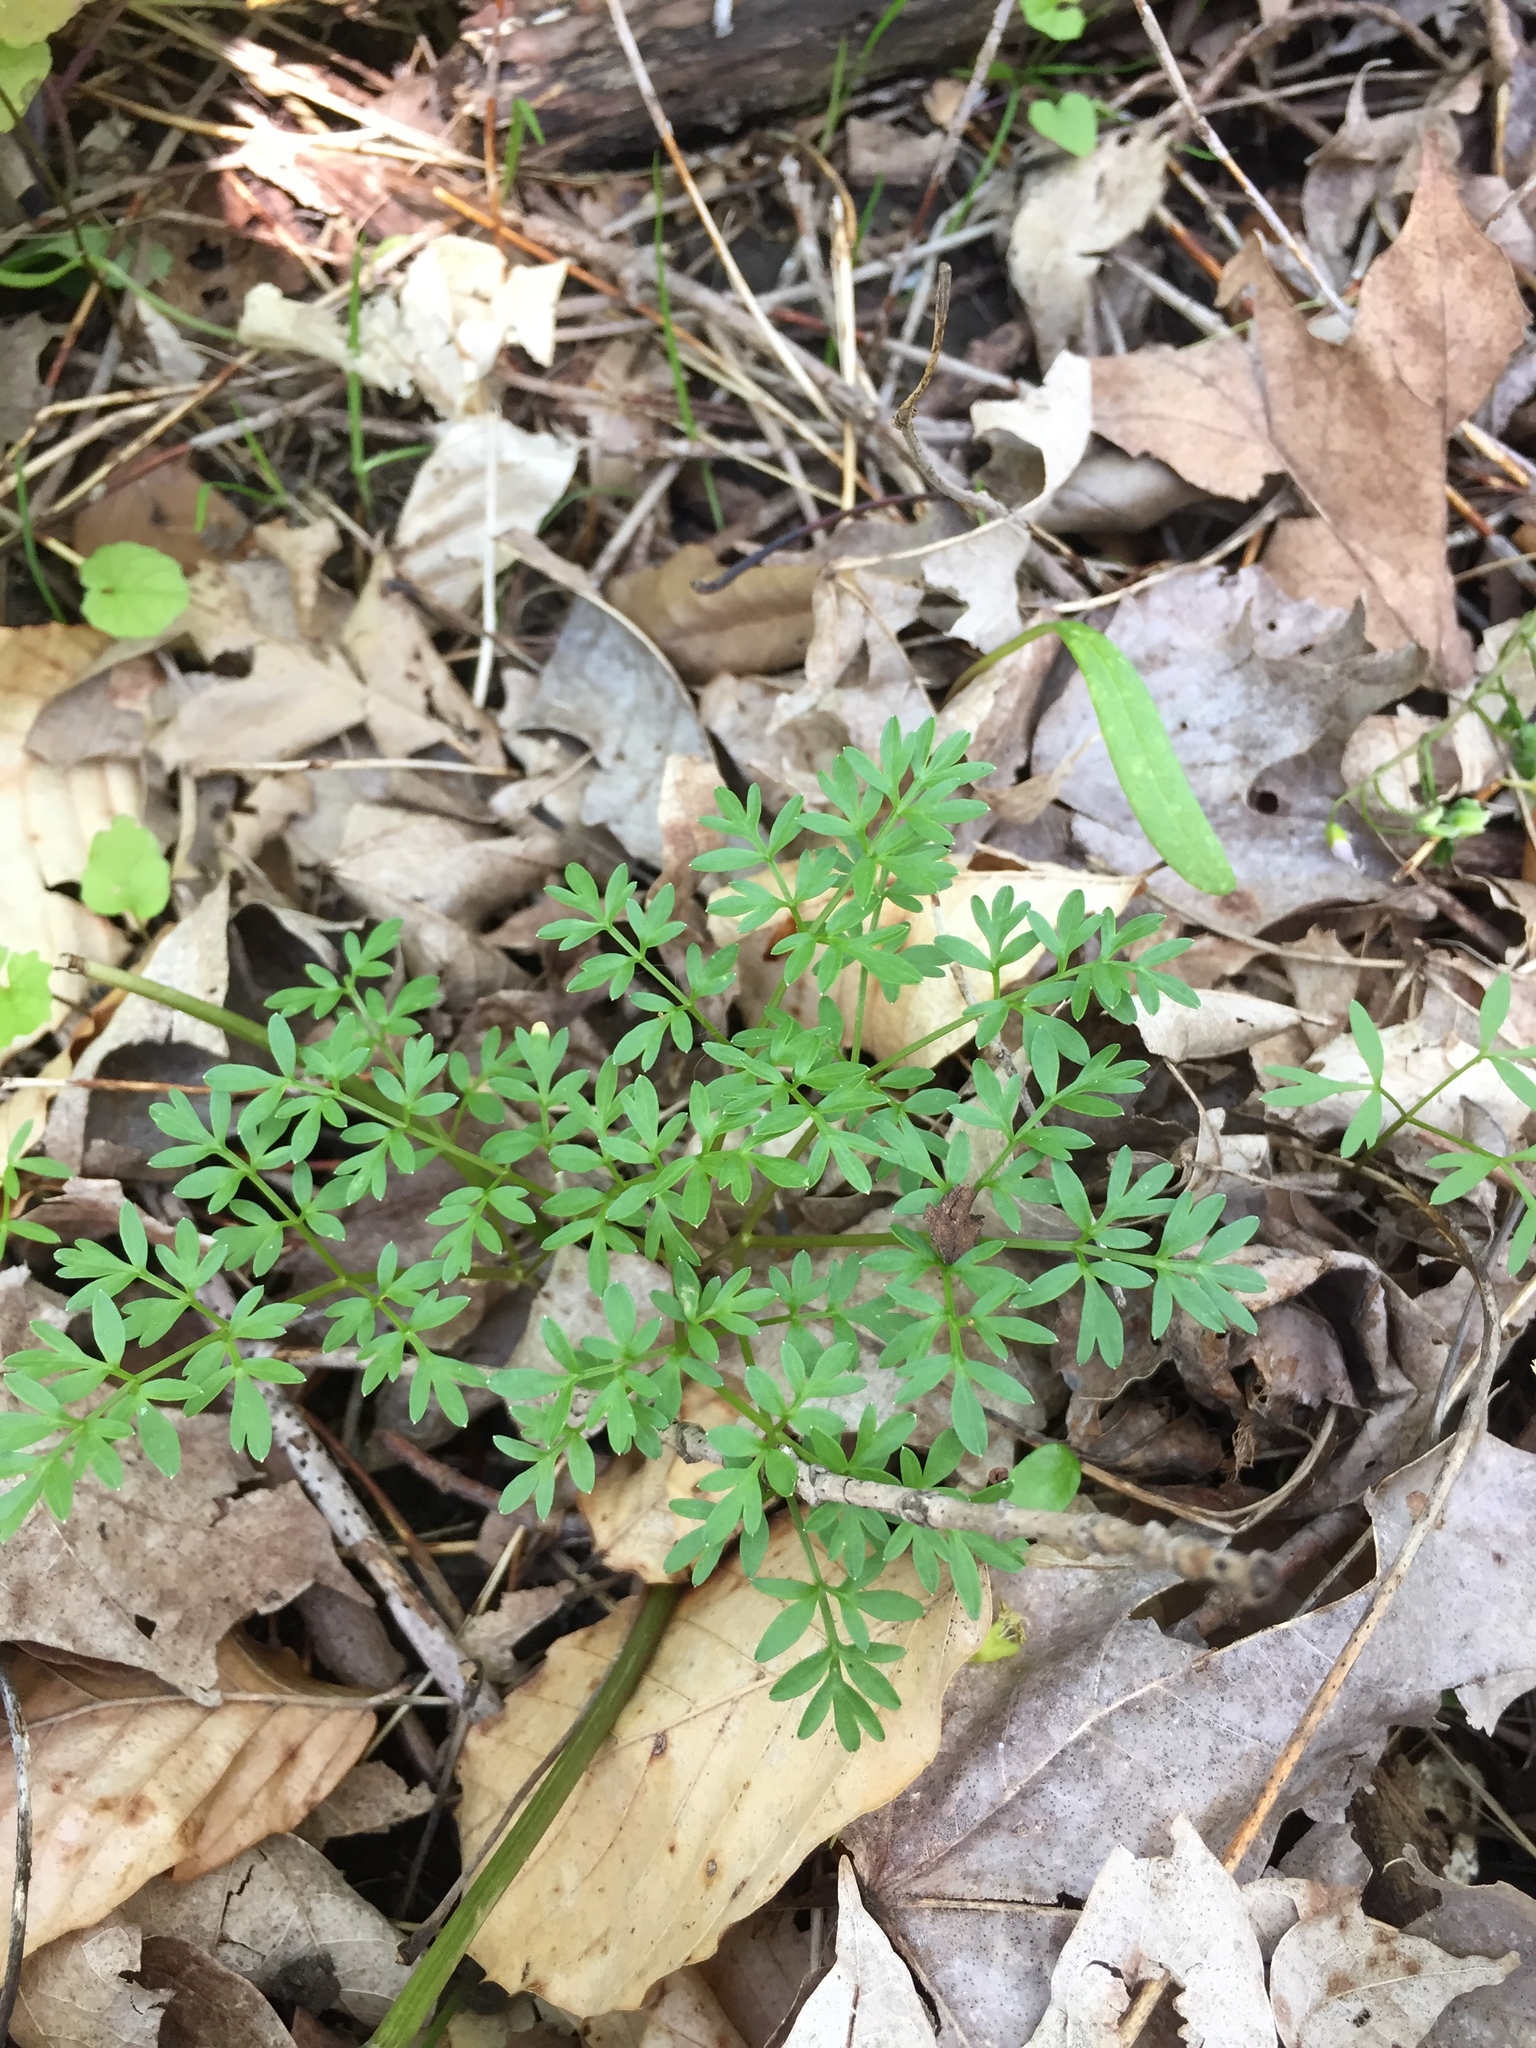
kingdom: Plantae
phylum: Tracheophyta
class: Magnoliopsida
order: Apiales
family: Apiaceae
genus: Erigenia
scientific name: Erigenia bulbosa
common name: Pepper-and-salt
